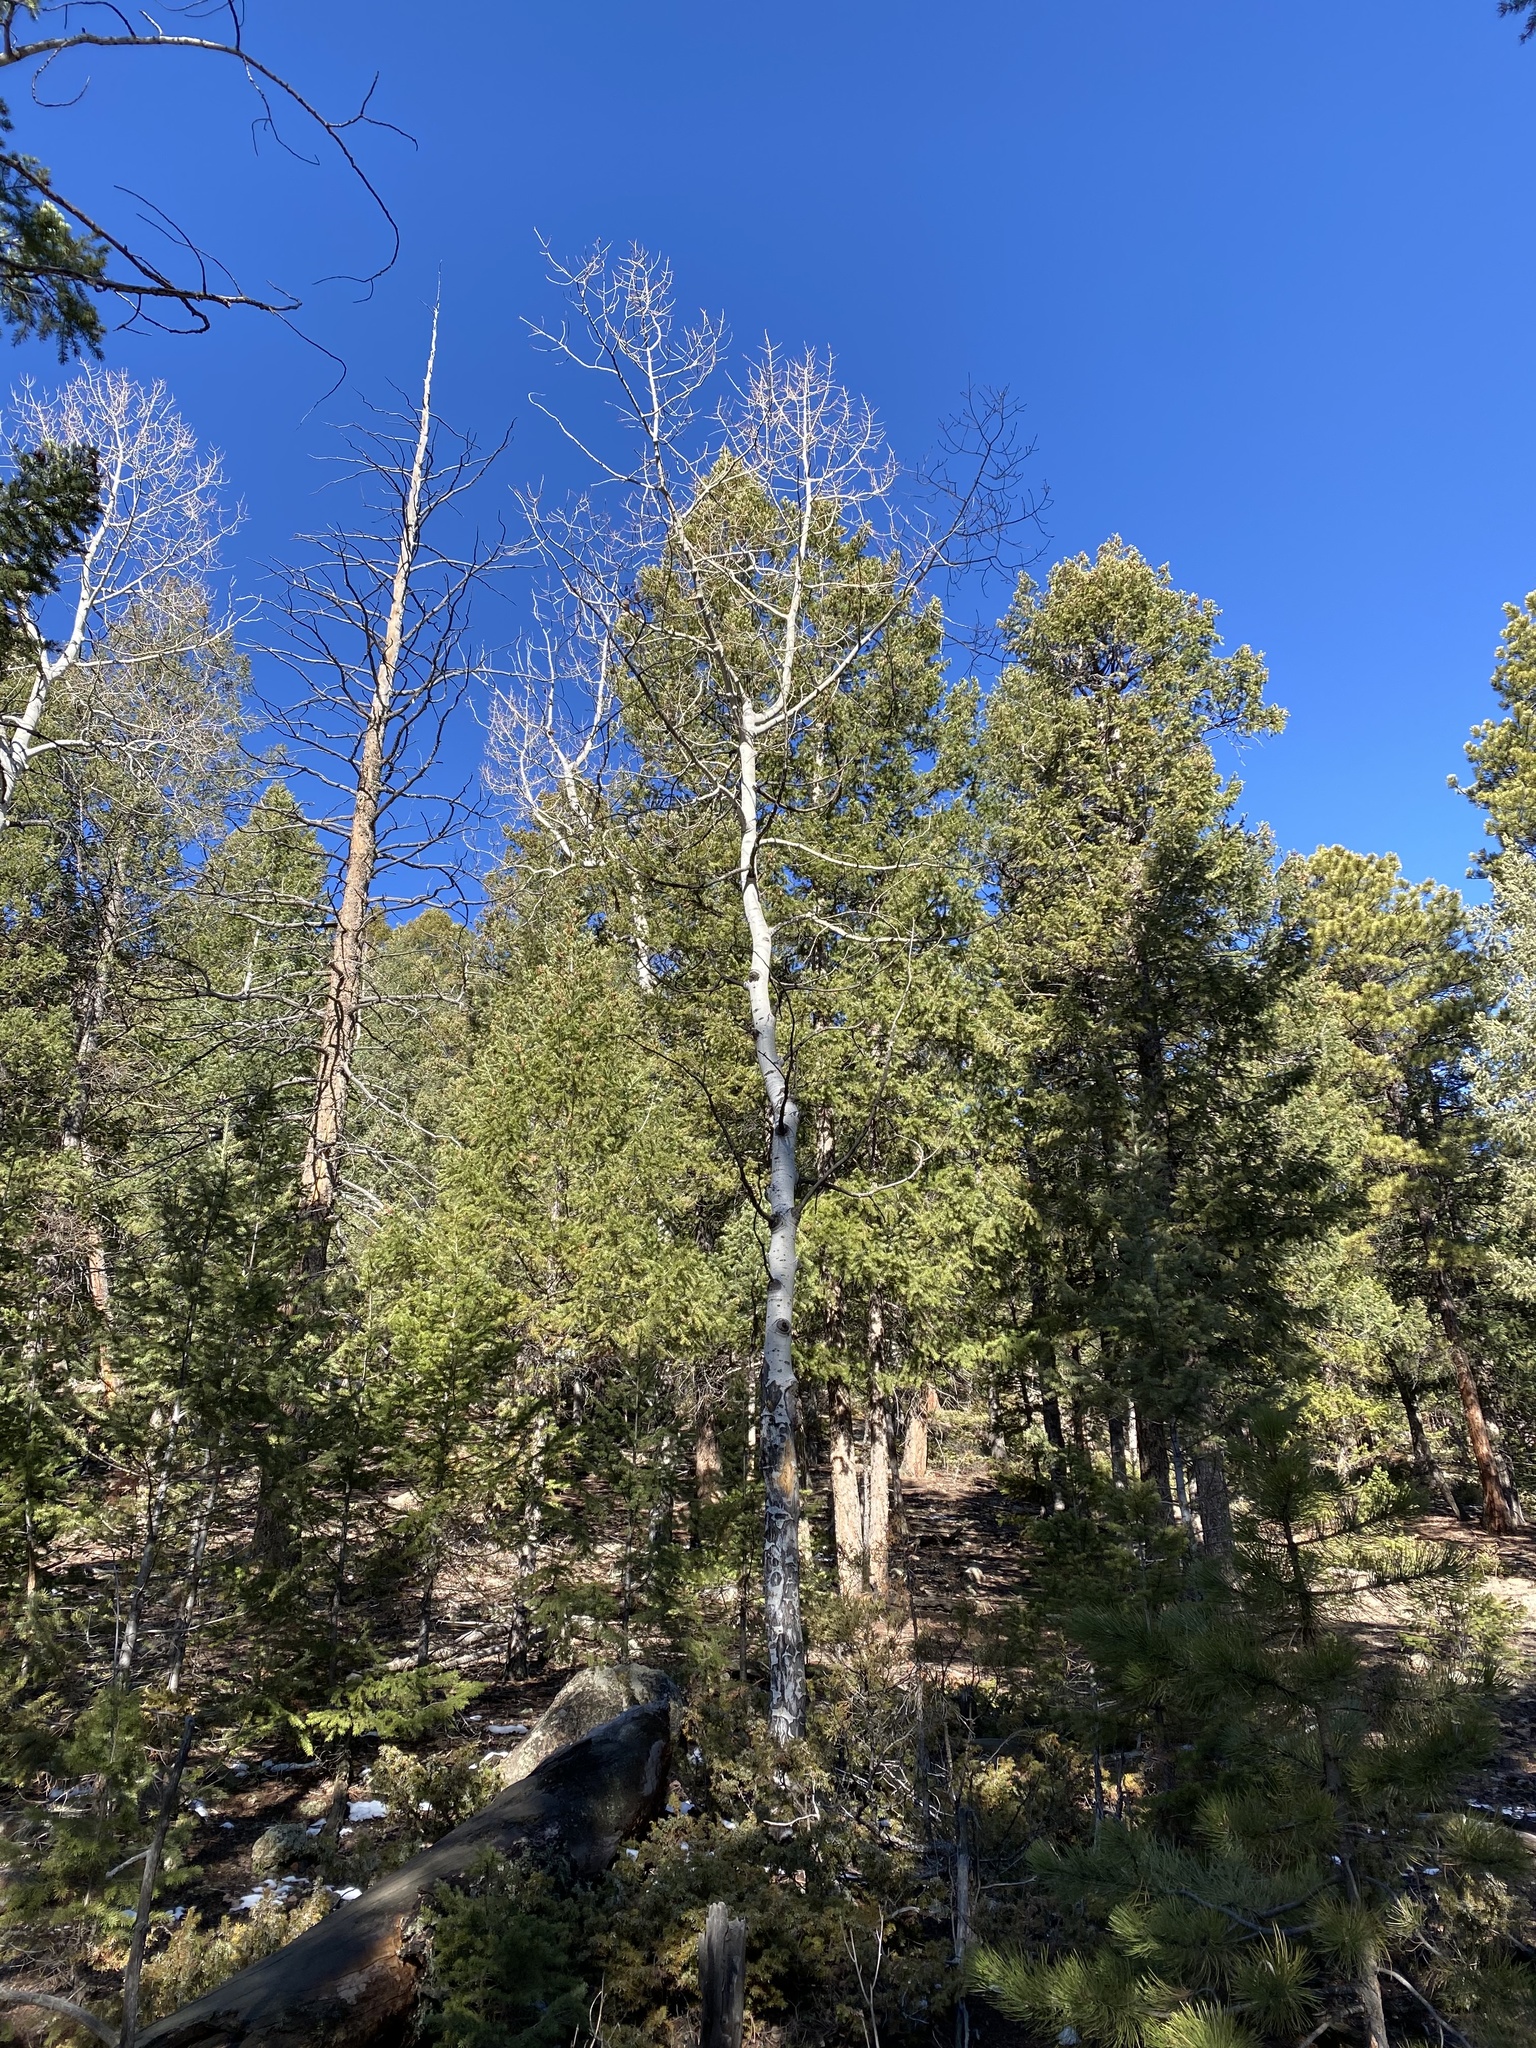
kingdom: Plantae
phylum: Tracheophyta
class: Magnoliopsida
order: Malpighiales
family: Salicaceae
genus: Populus
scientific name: Populus tremuloides
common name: Quaking aspen
